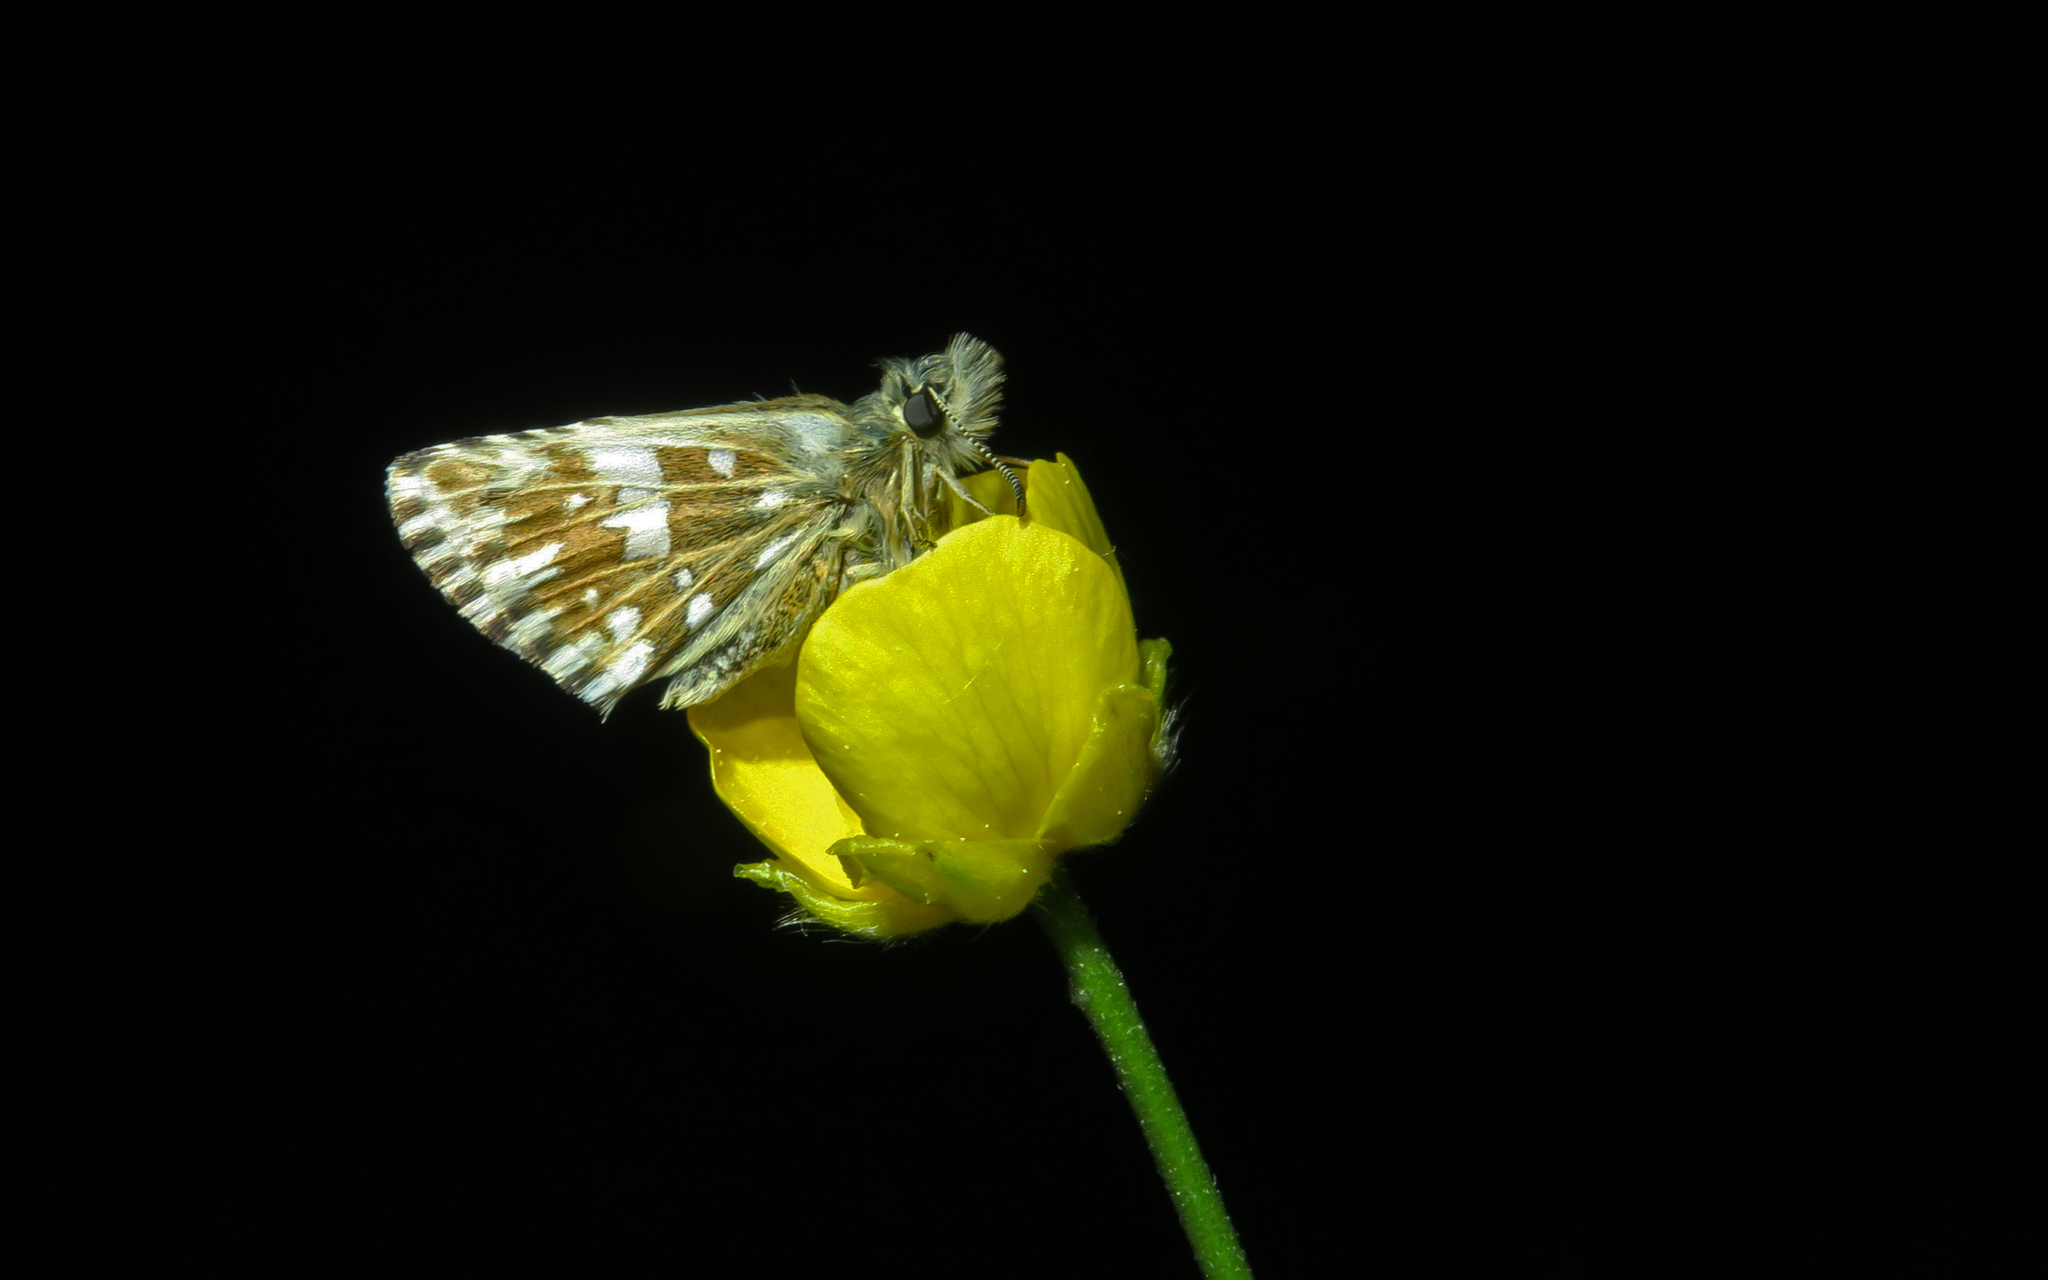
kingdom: Animalia
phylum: Arthropoda
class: Insecta
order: Lepidoptera
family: Hesperiidae
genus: Pyrgus
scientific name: Pyrgus malvae
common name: Grizzled skipper
